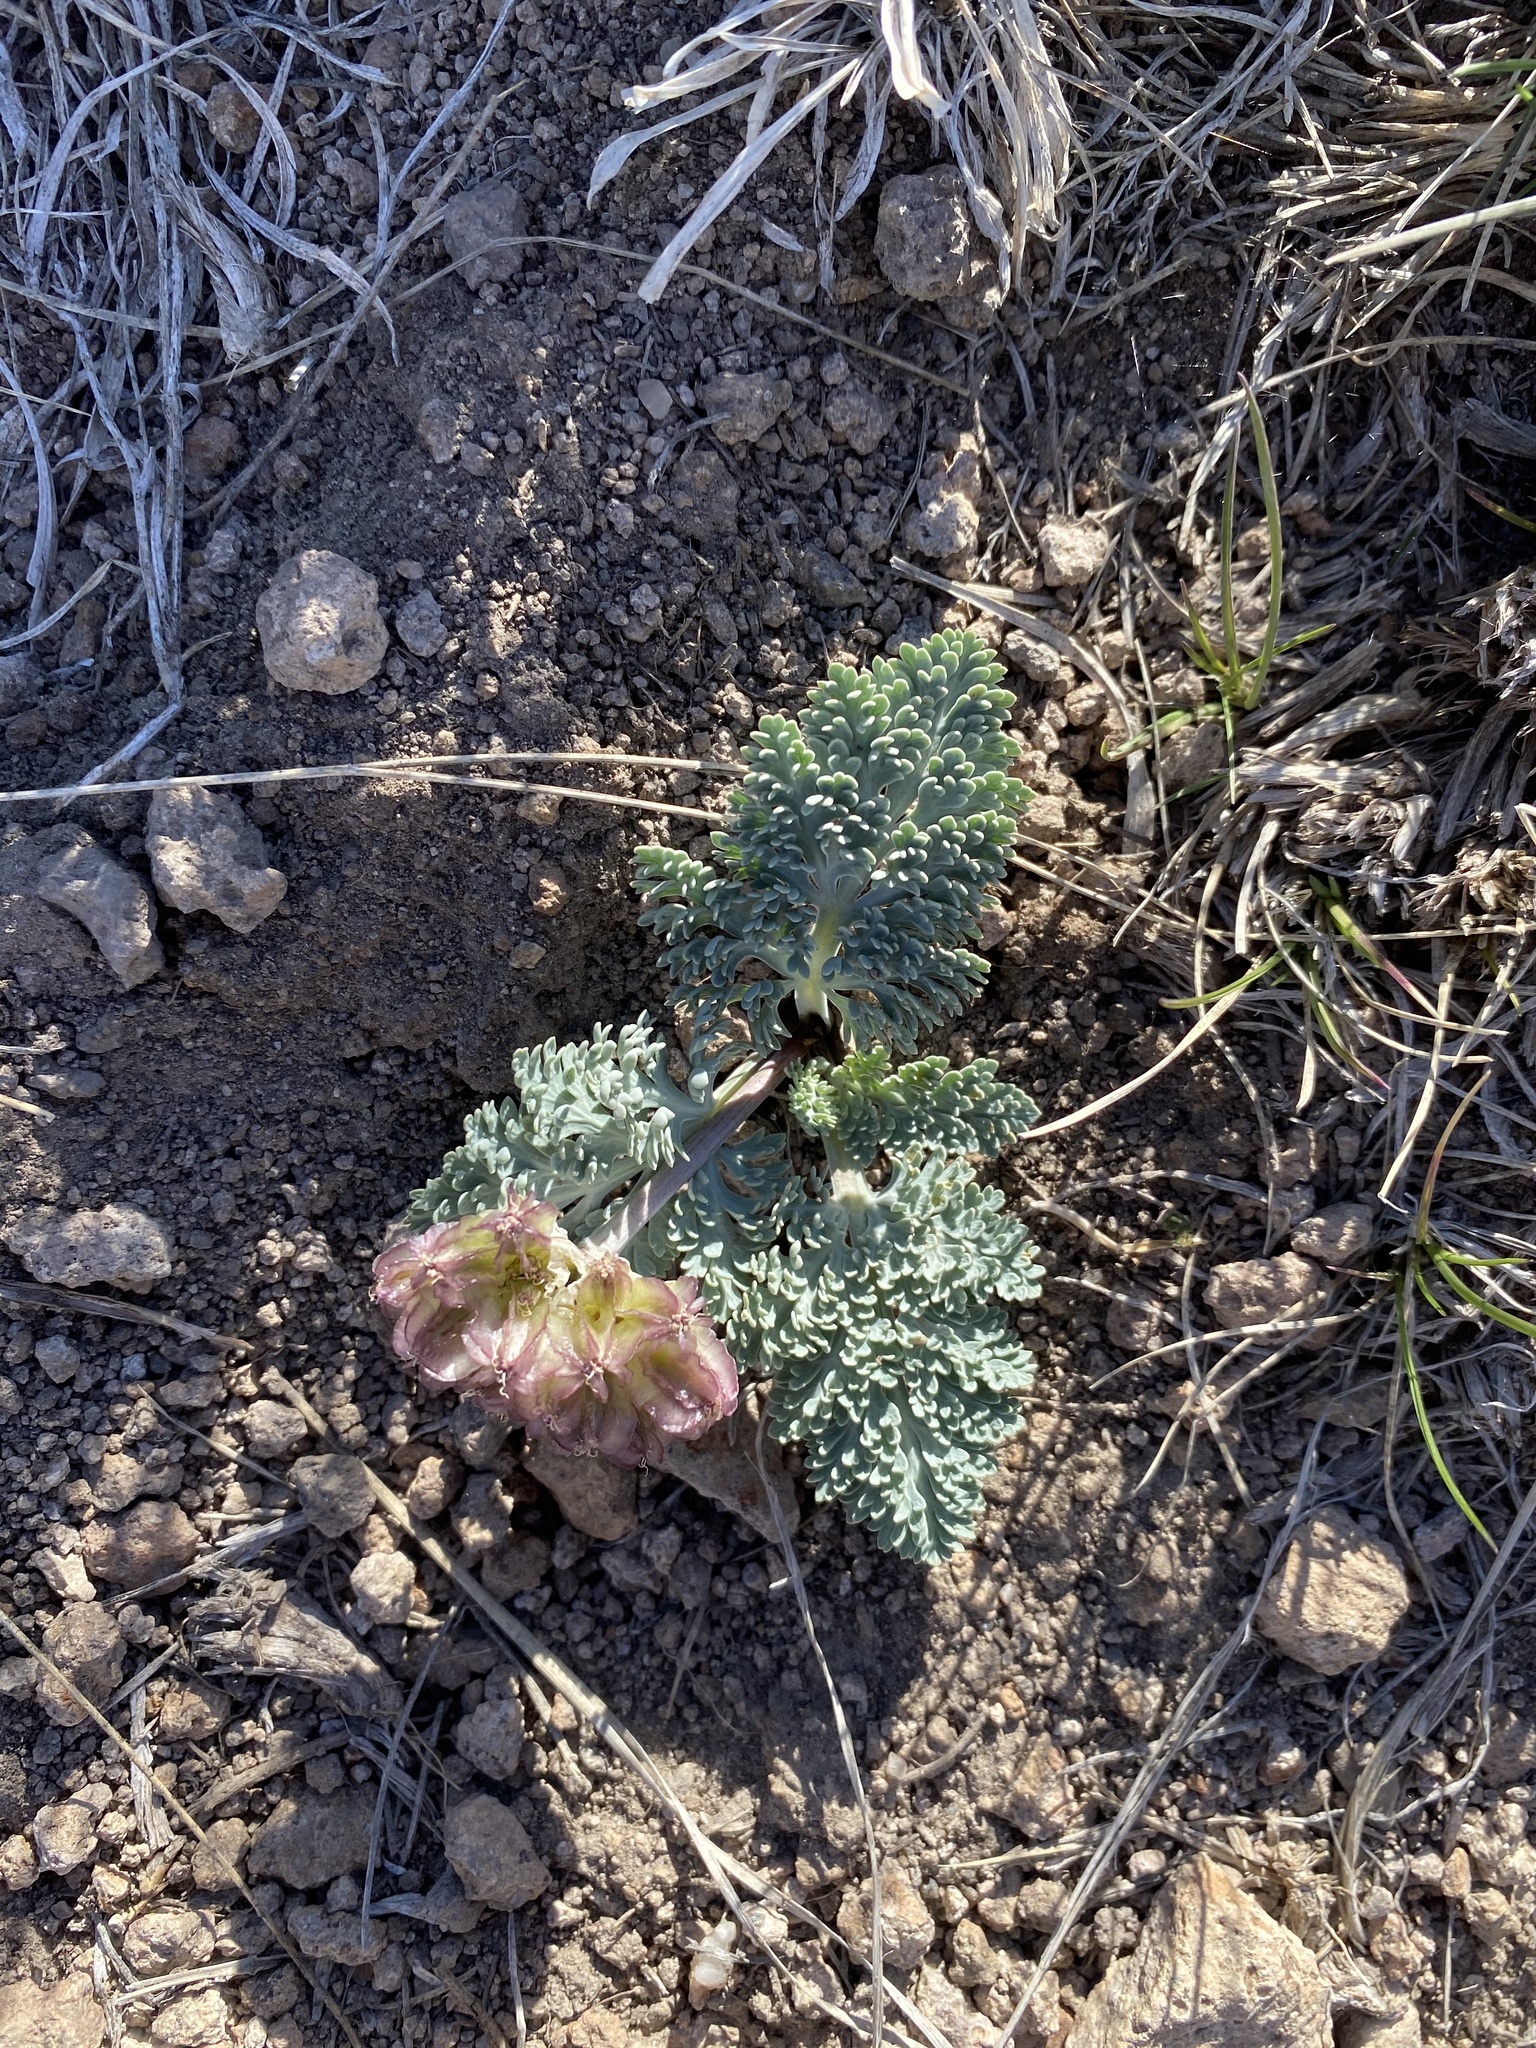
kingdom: Plantae
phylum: Tracheophyta
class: Magnoliopsida
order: Apiales
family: Apiaceae
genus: Vesper
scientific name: Vesper purpurascens
